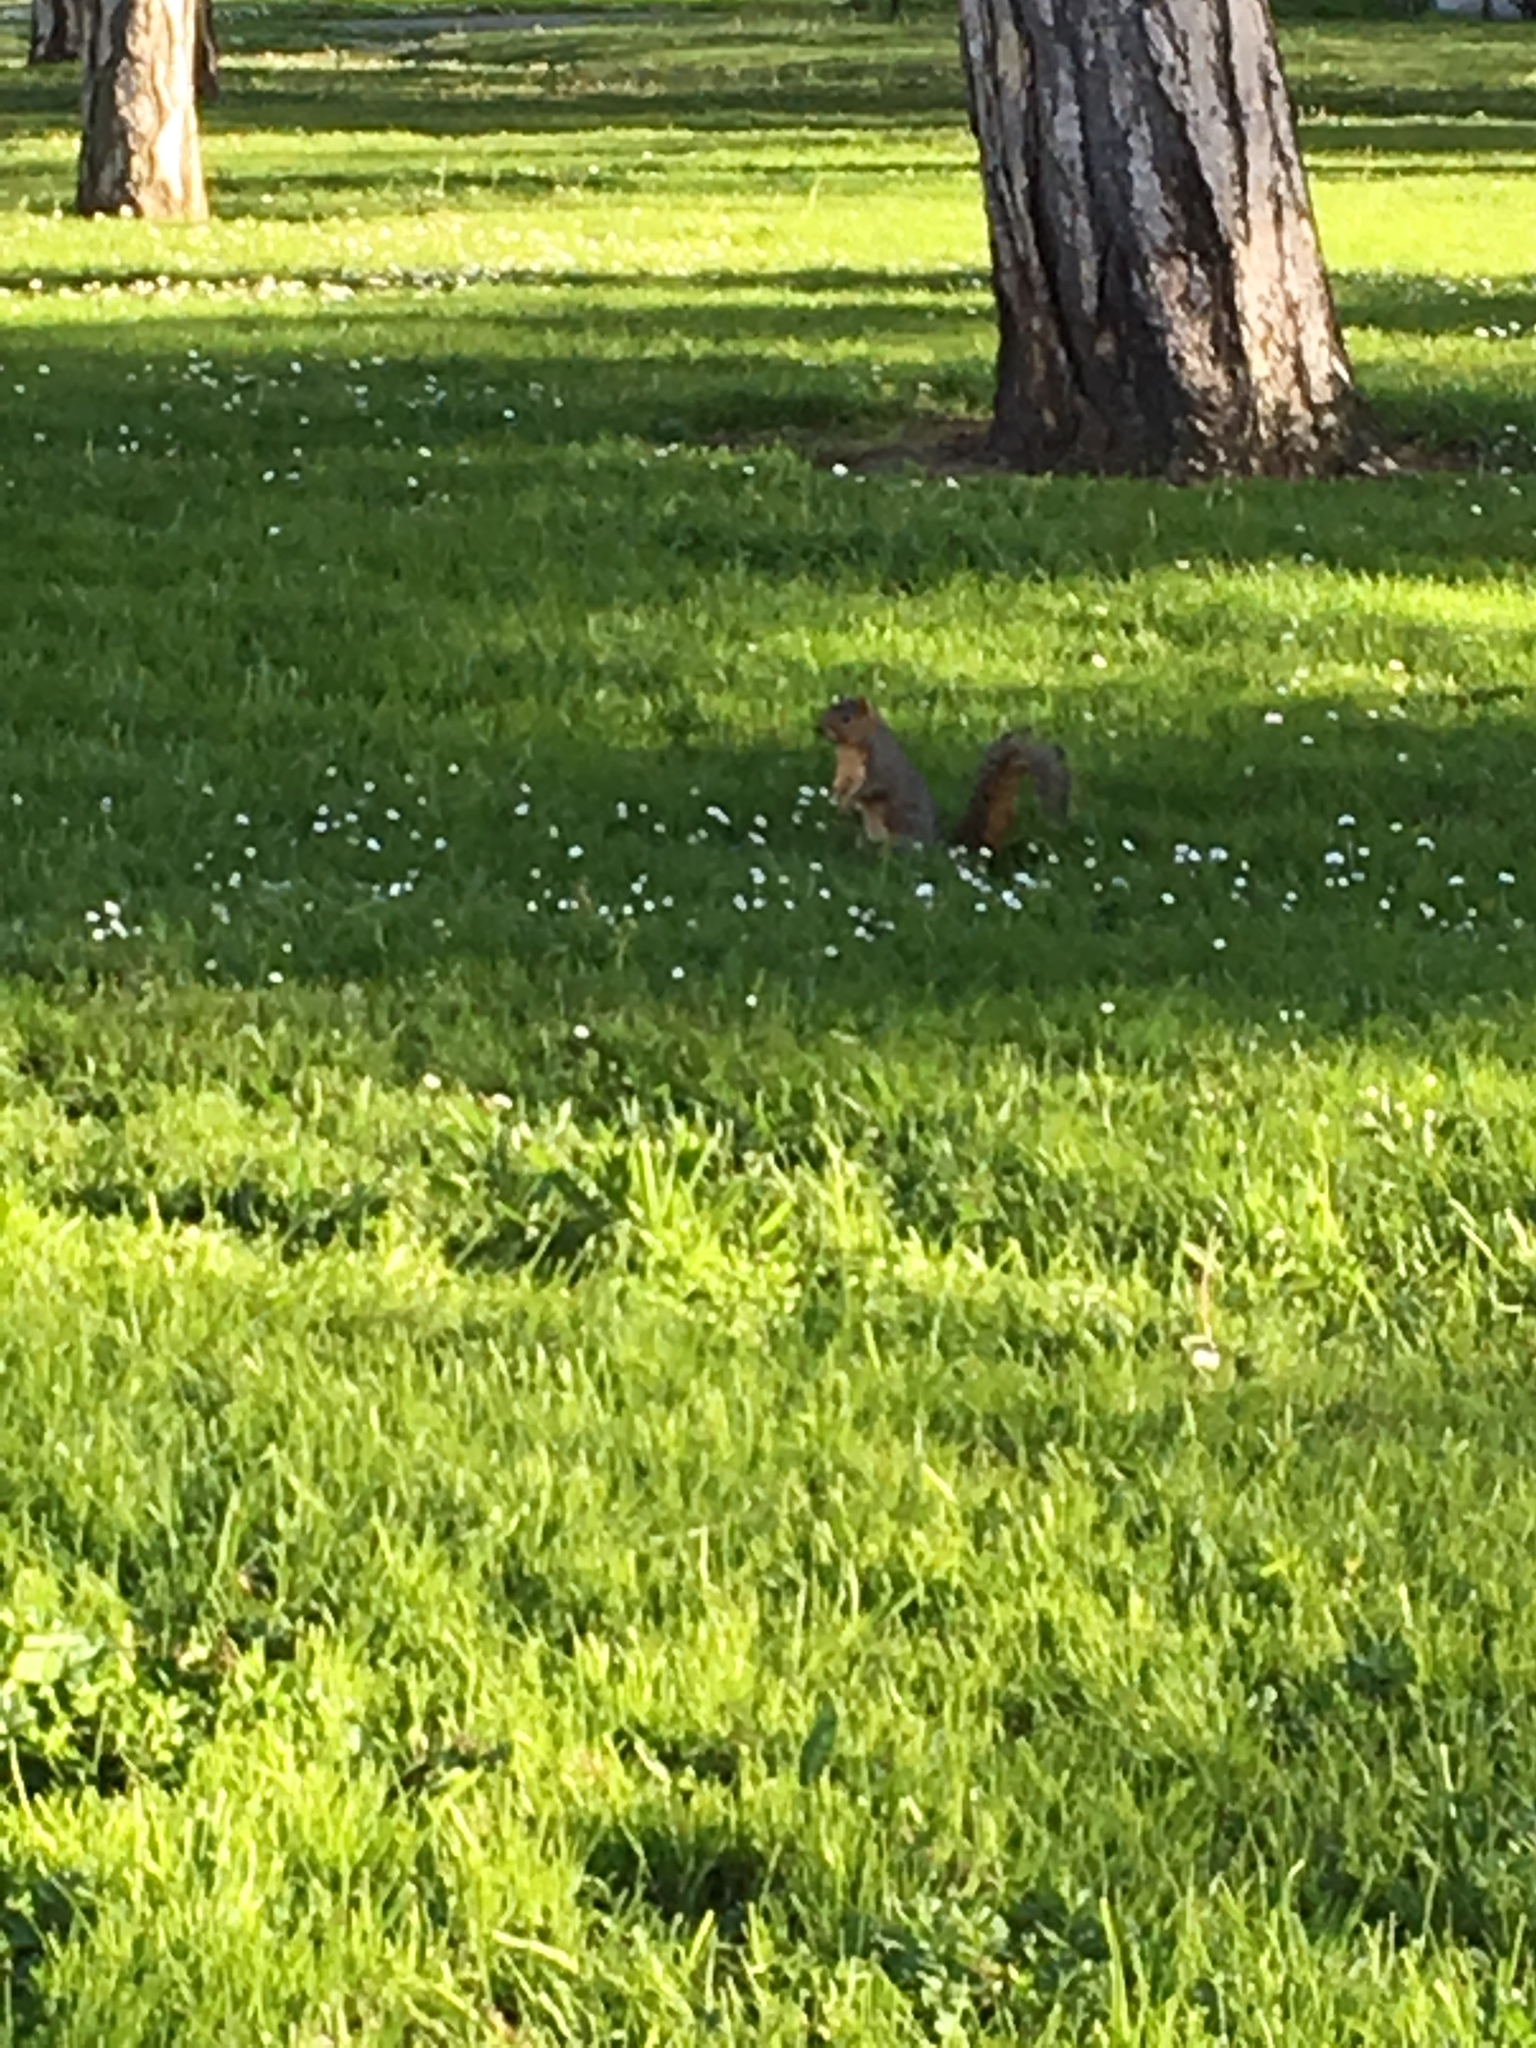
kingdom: Animalia
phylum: Chordata
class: Mammalia
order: Rodentia
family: Sciuridae
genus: Sciurus
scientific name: Sciurus niger
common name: Fox squirrel
